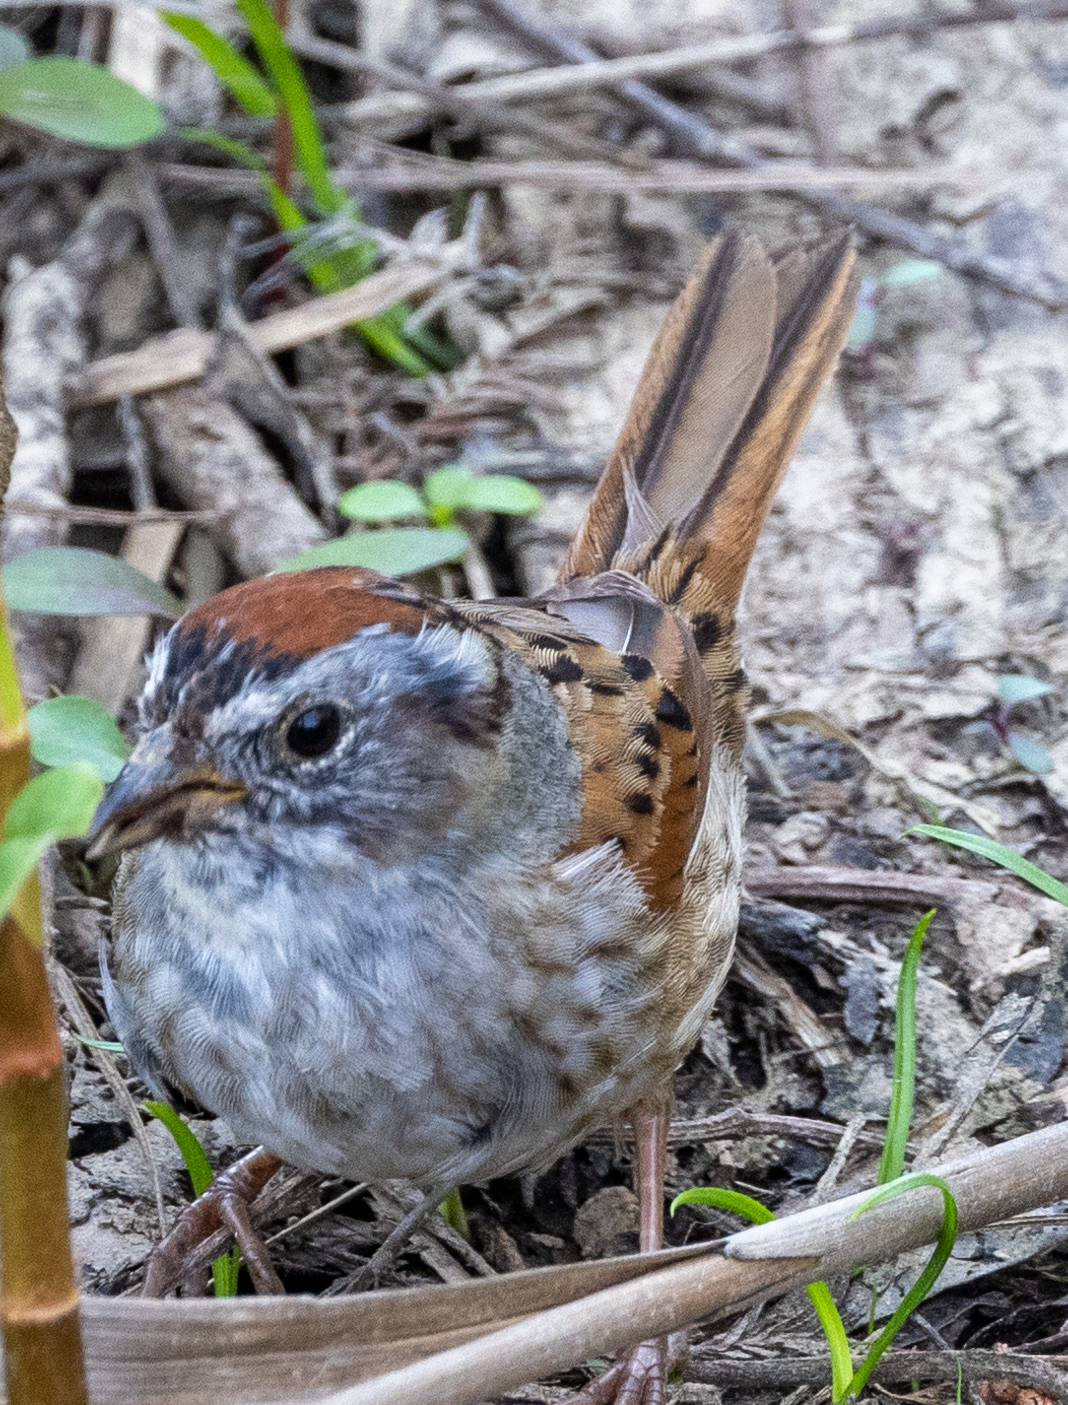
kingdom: Animalia
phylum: Chordata
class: Aves
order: Passeriformes
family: Passerellidae
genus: Melospiza
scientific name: Melospiza georgiana
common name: Swamp sparrow
